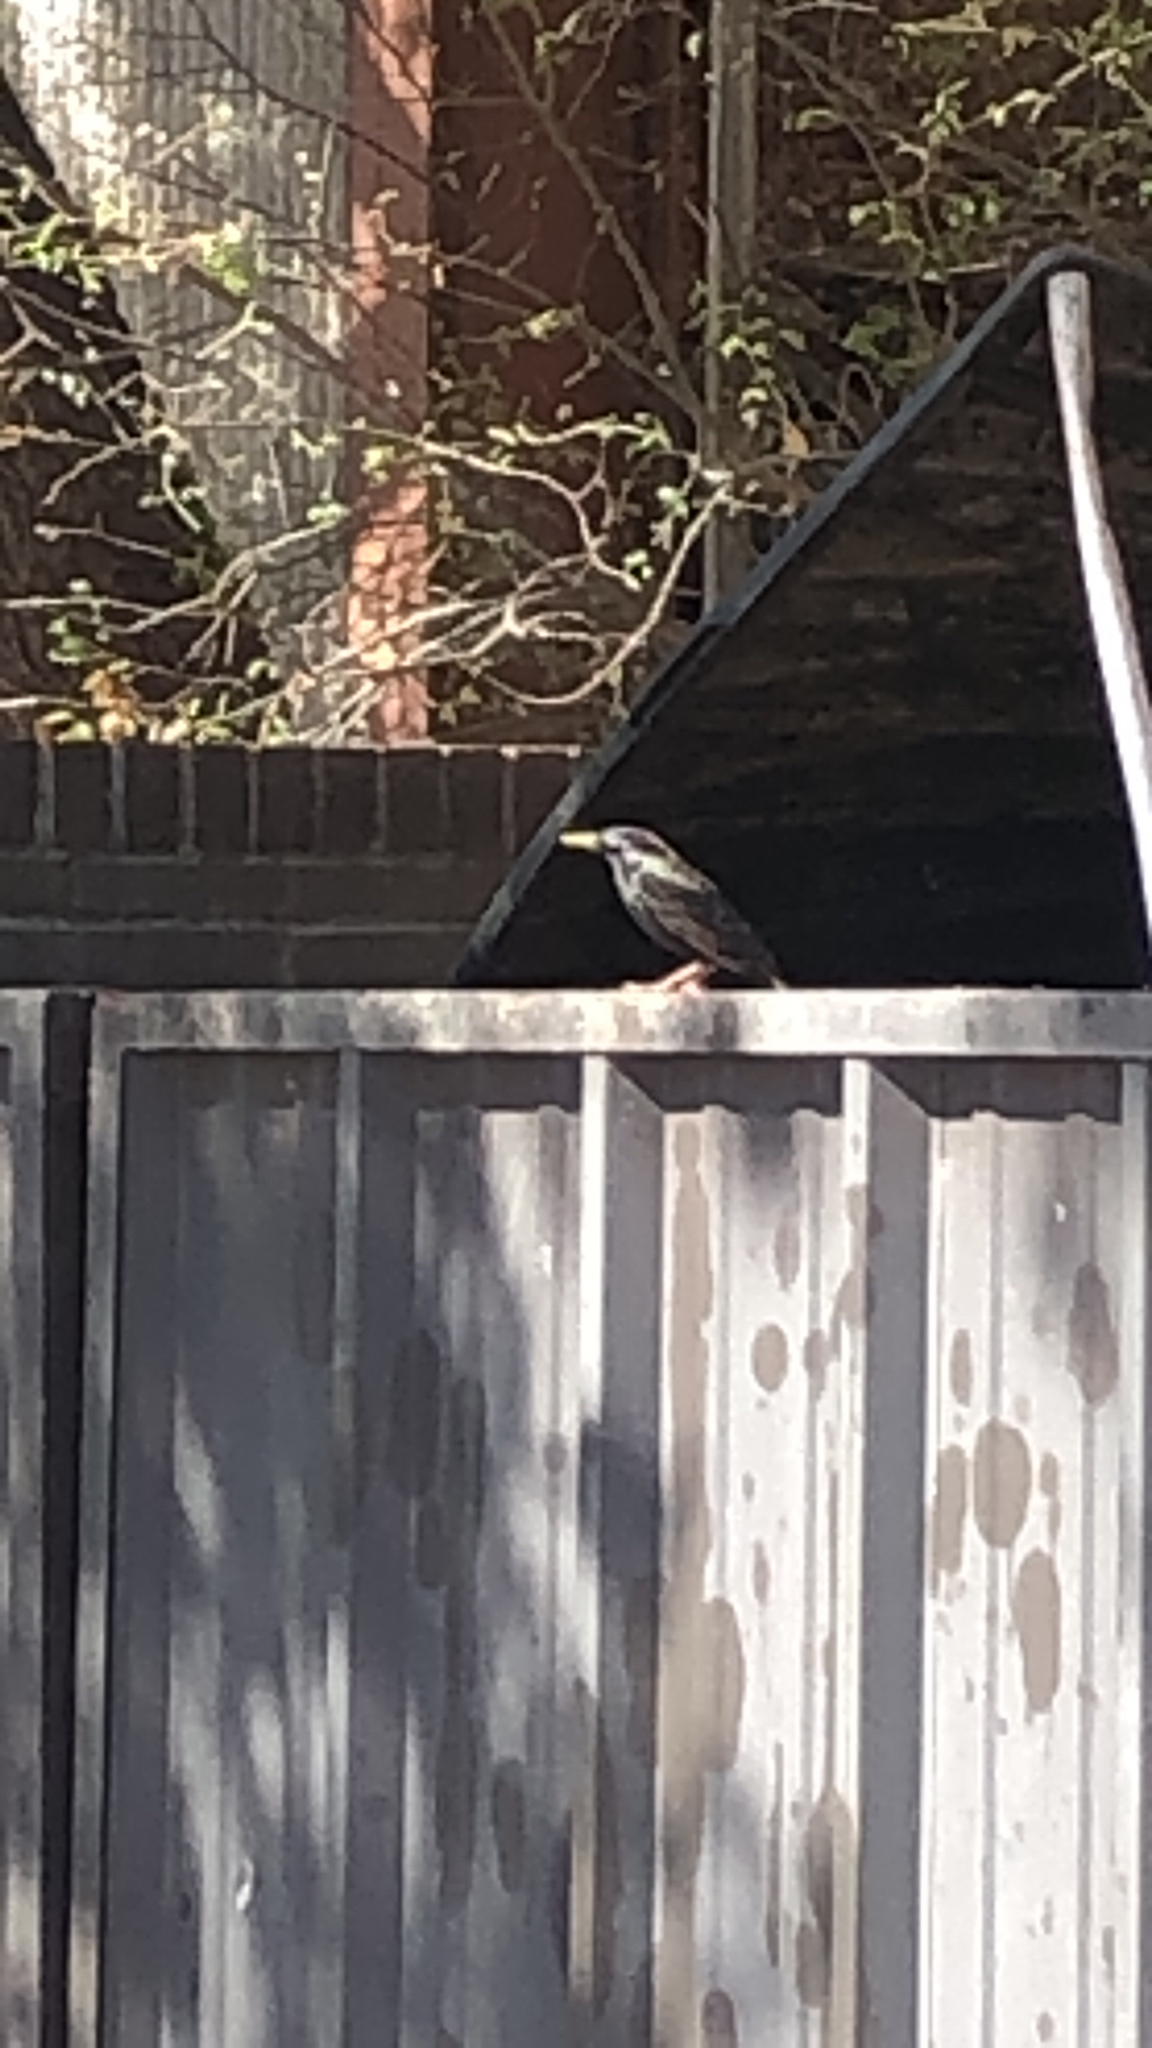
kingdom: Animalia
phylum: Chordata
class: Aves
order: Passeriformes
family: Sturnidae
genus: Sturnus
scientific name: Sturnus vulgaris
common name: Common starling
